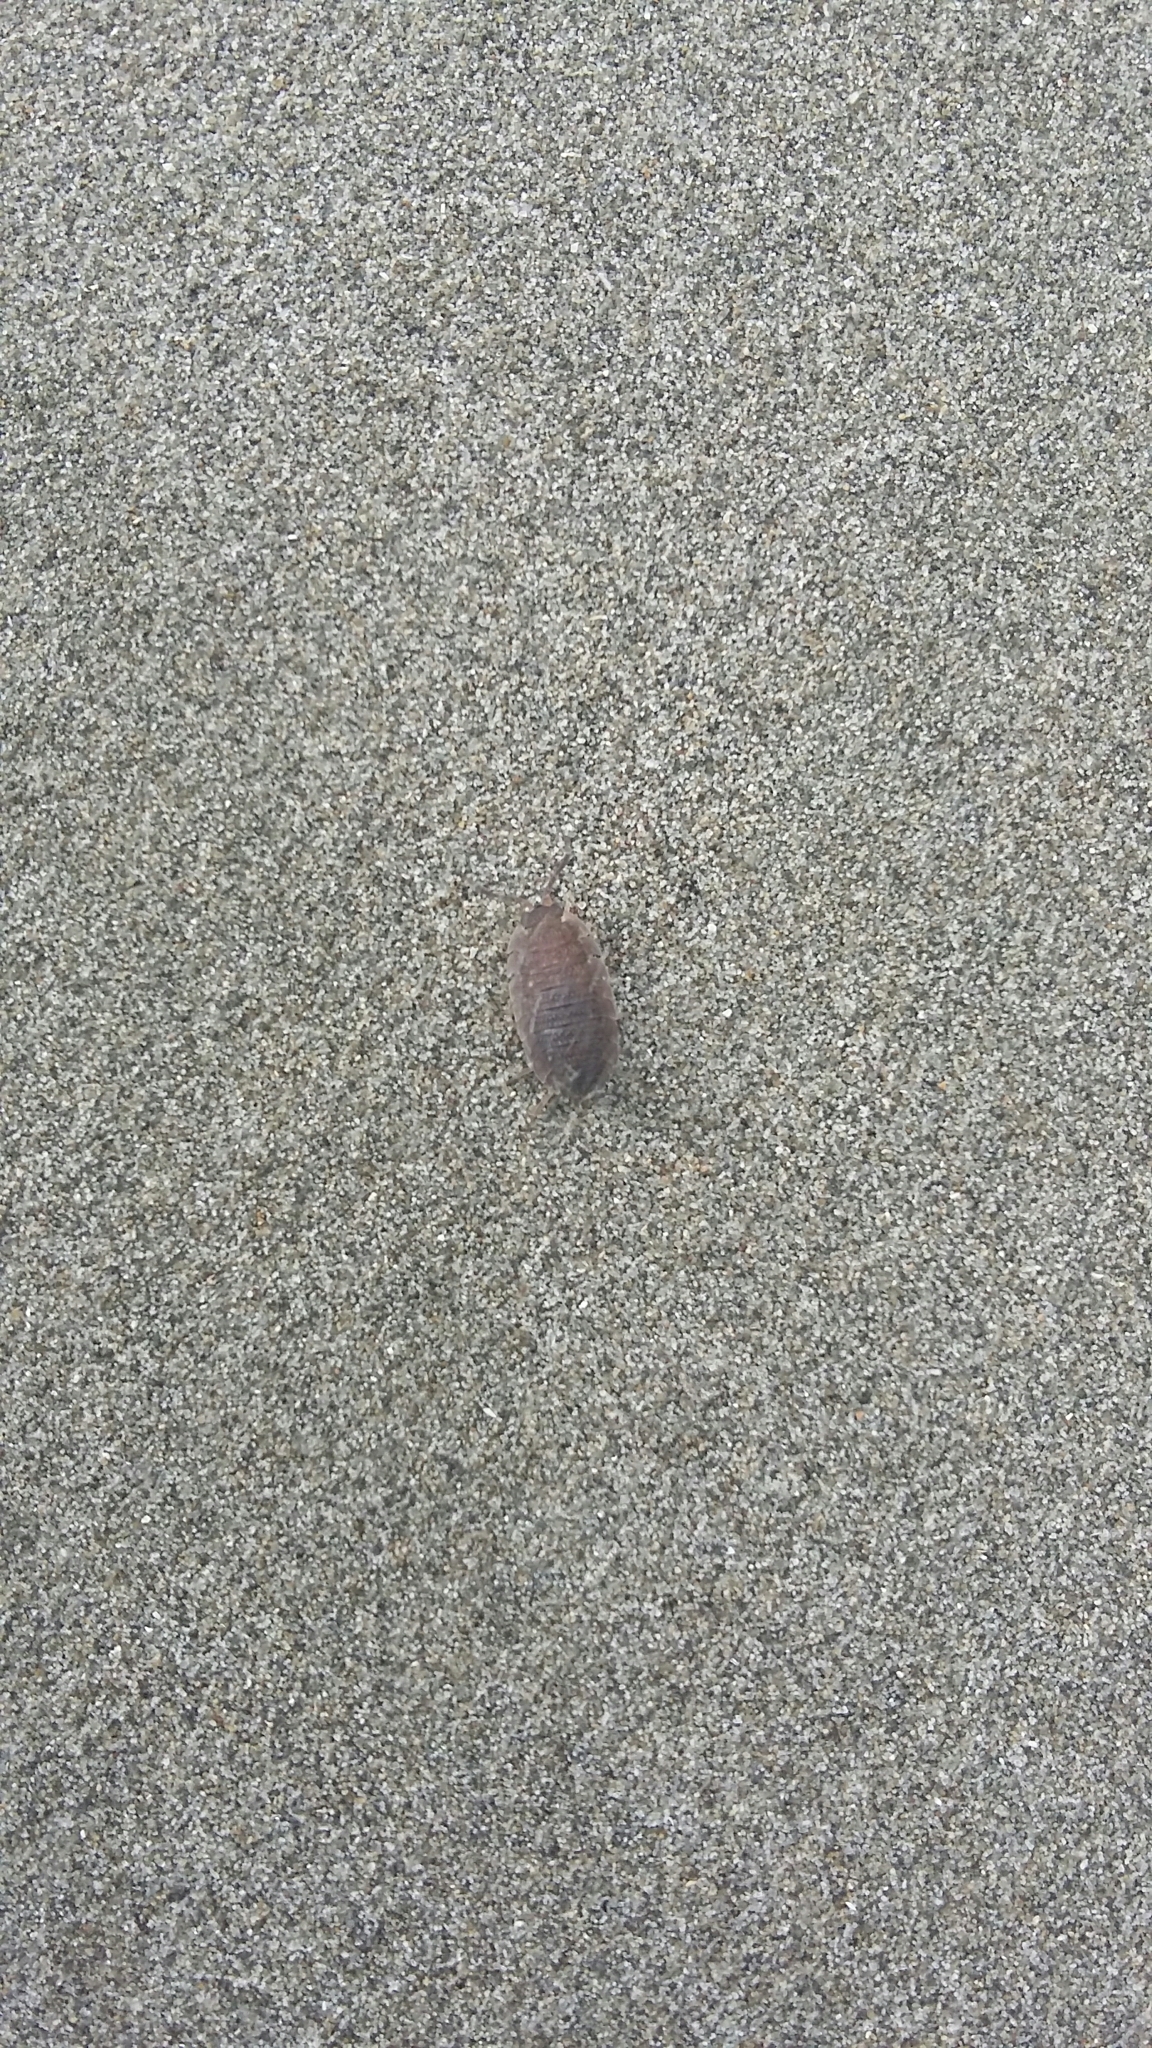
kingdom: Animalia
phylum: Arthropoda
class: Malacostraca
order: Isopoda
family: Porcellionidae
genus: Porcellio
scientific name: Porcellio scaber
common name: Common rough woodlouse
